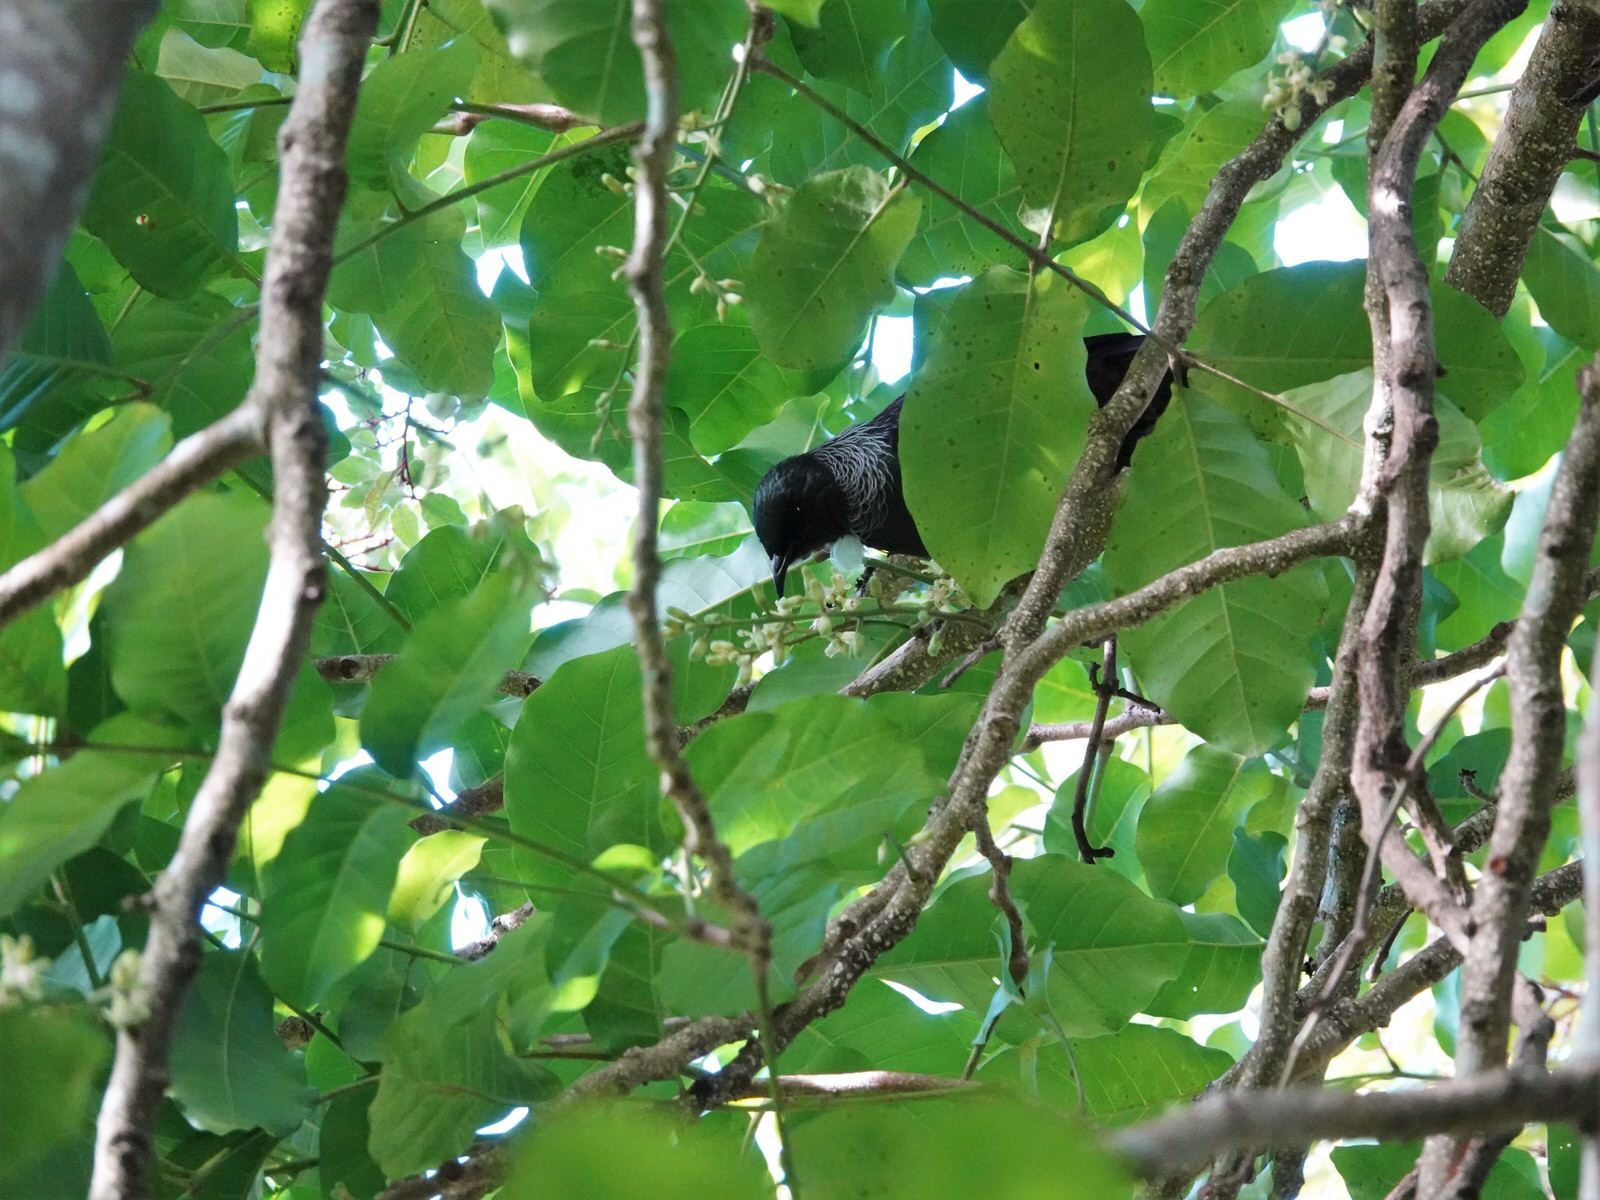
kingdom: Animalia
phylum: Chordata
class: Aves
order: Passeriformes
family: Meliphagidae
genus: Prosthemadera
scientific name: Prosthemadera novaeseelandiae
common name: Tui
